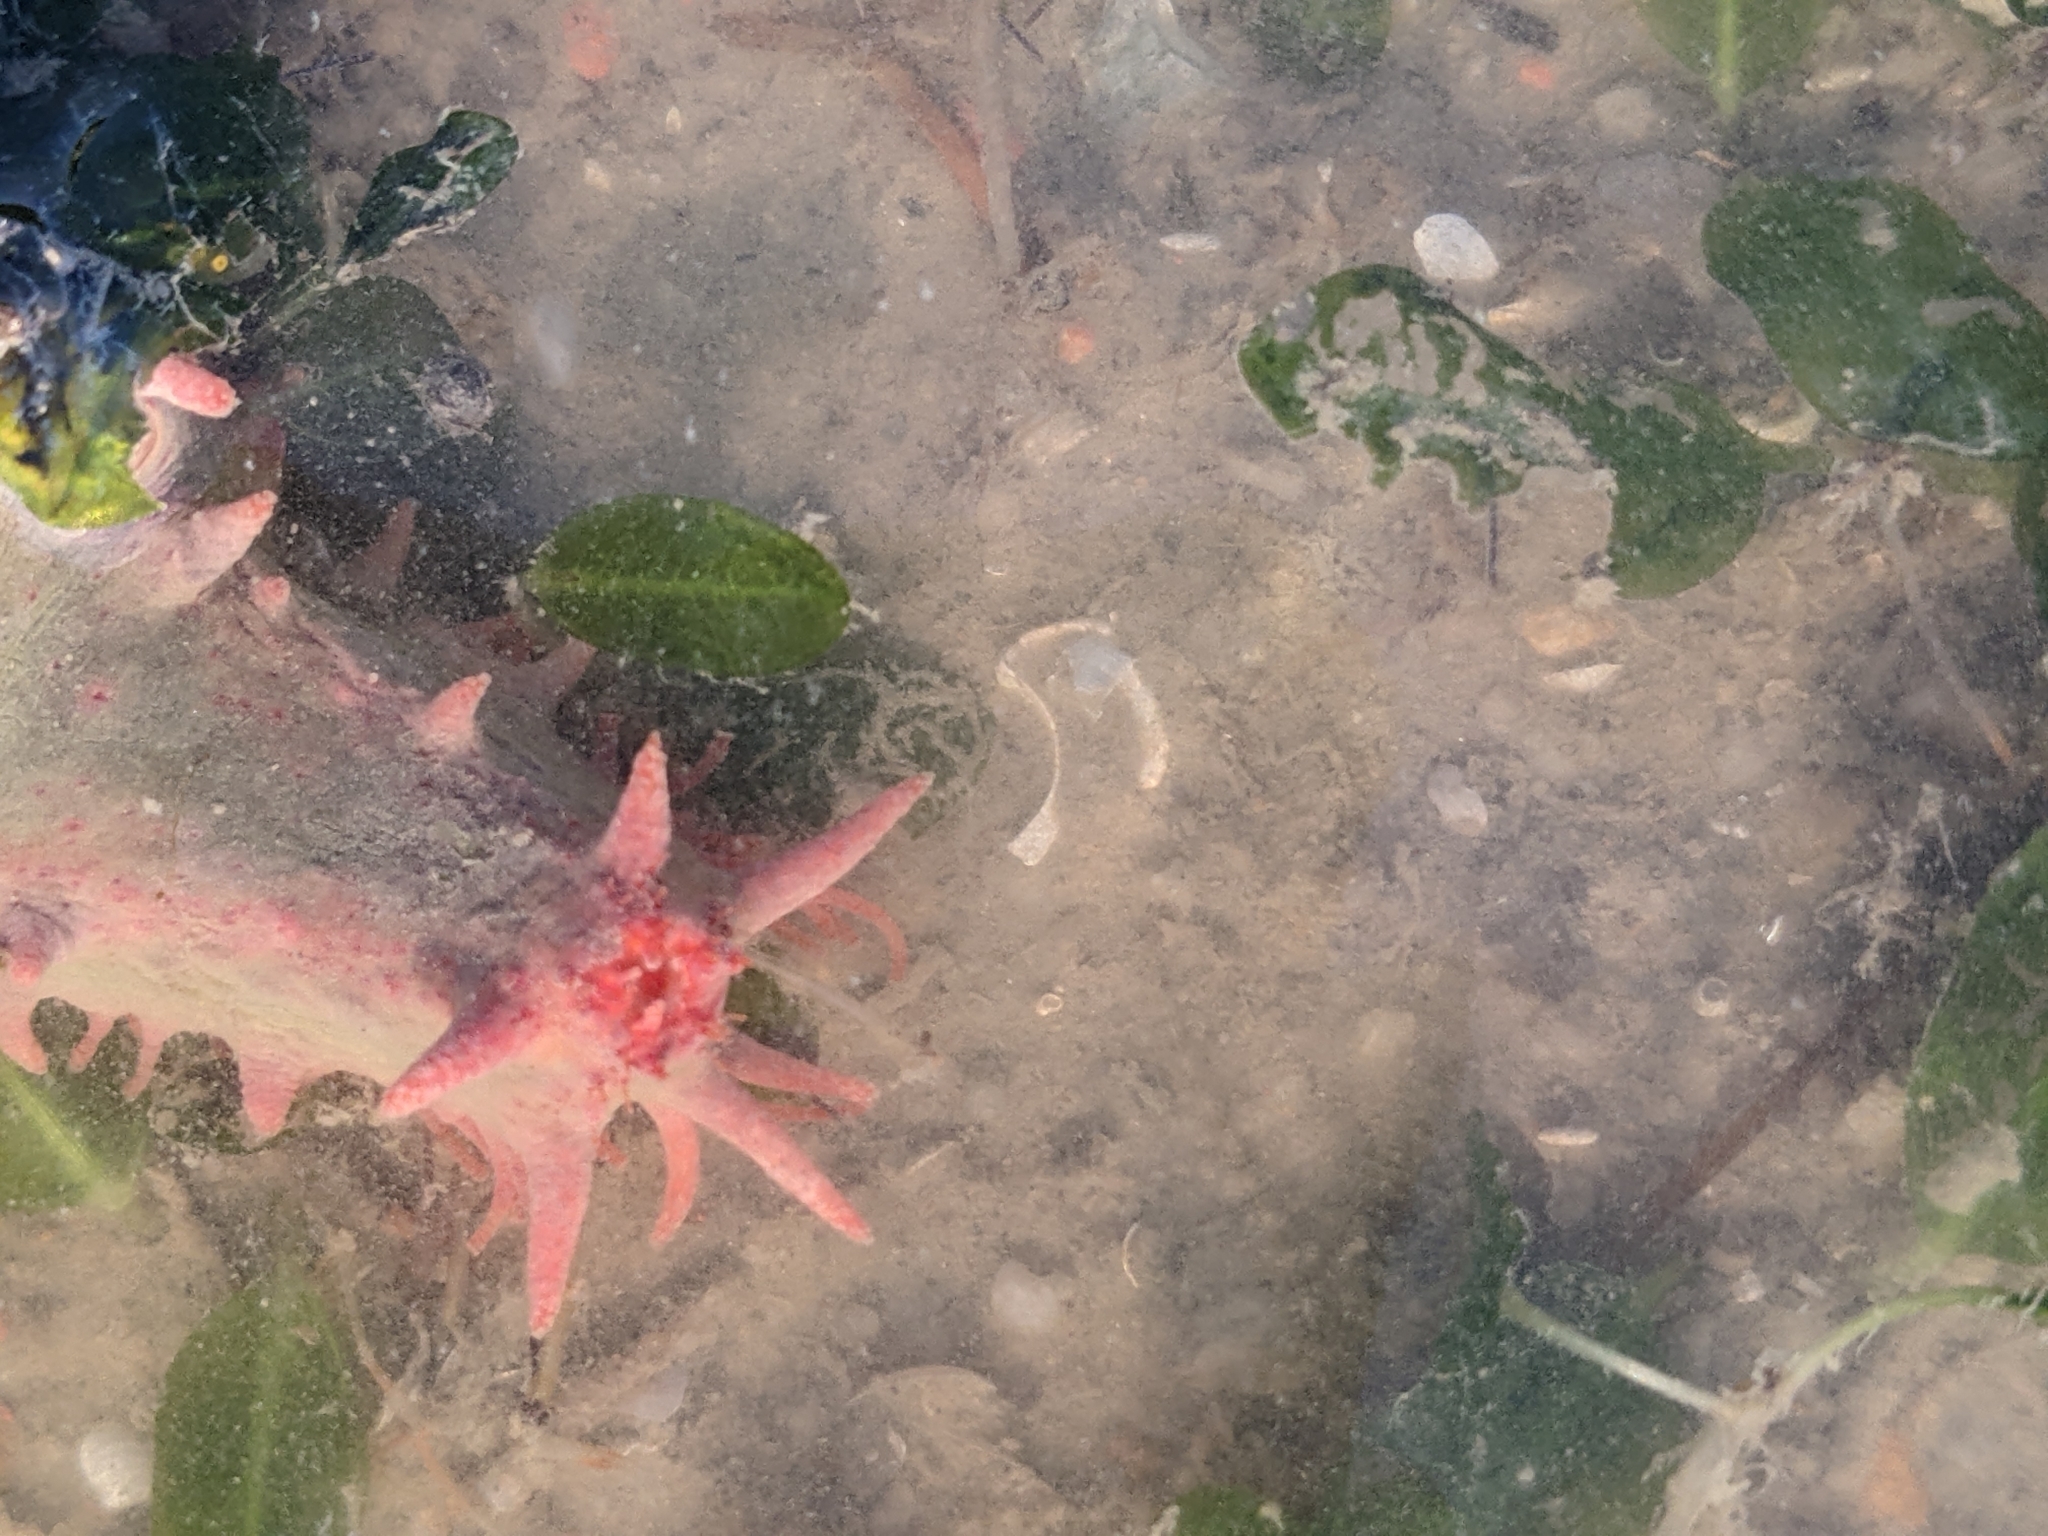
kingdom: Animalia
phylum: Echinodermata
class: Holothuroidea
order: Dendrochirotida
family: Cucumariidae
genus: Colochirus
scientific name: Colochirus quadrangularis
